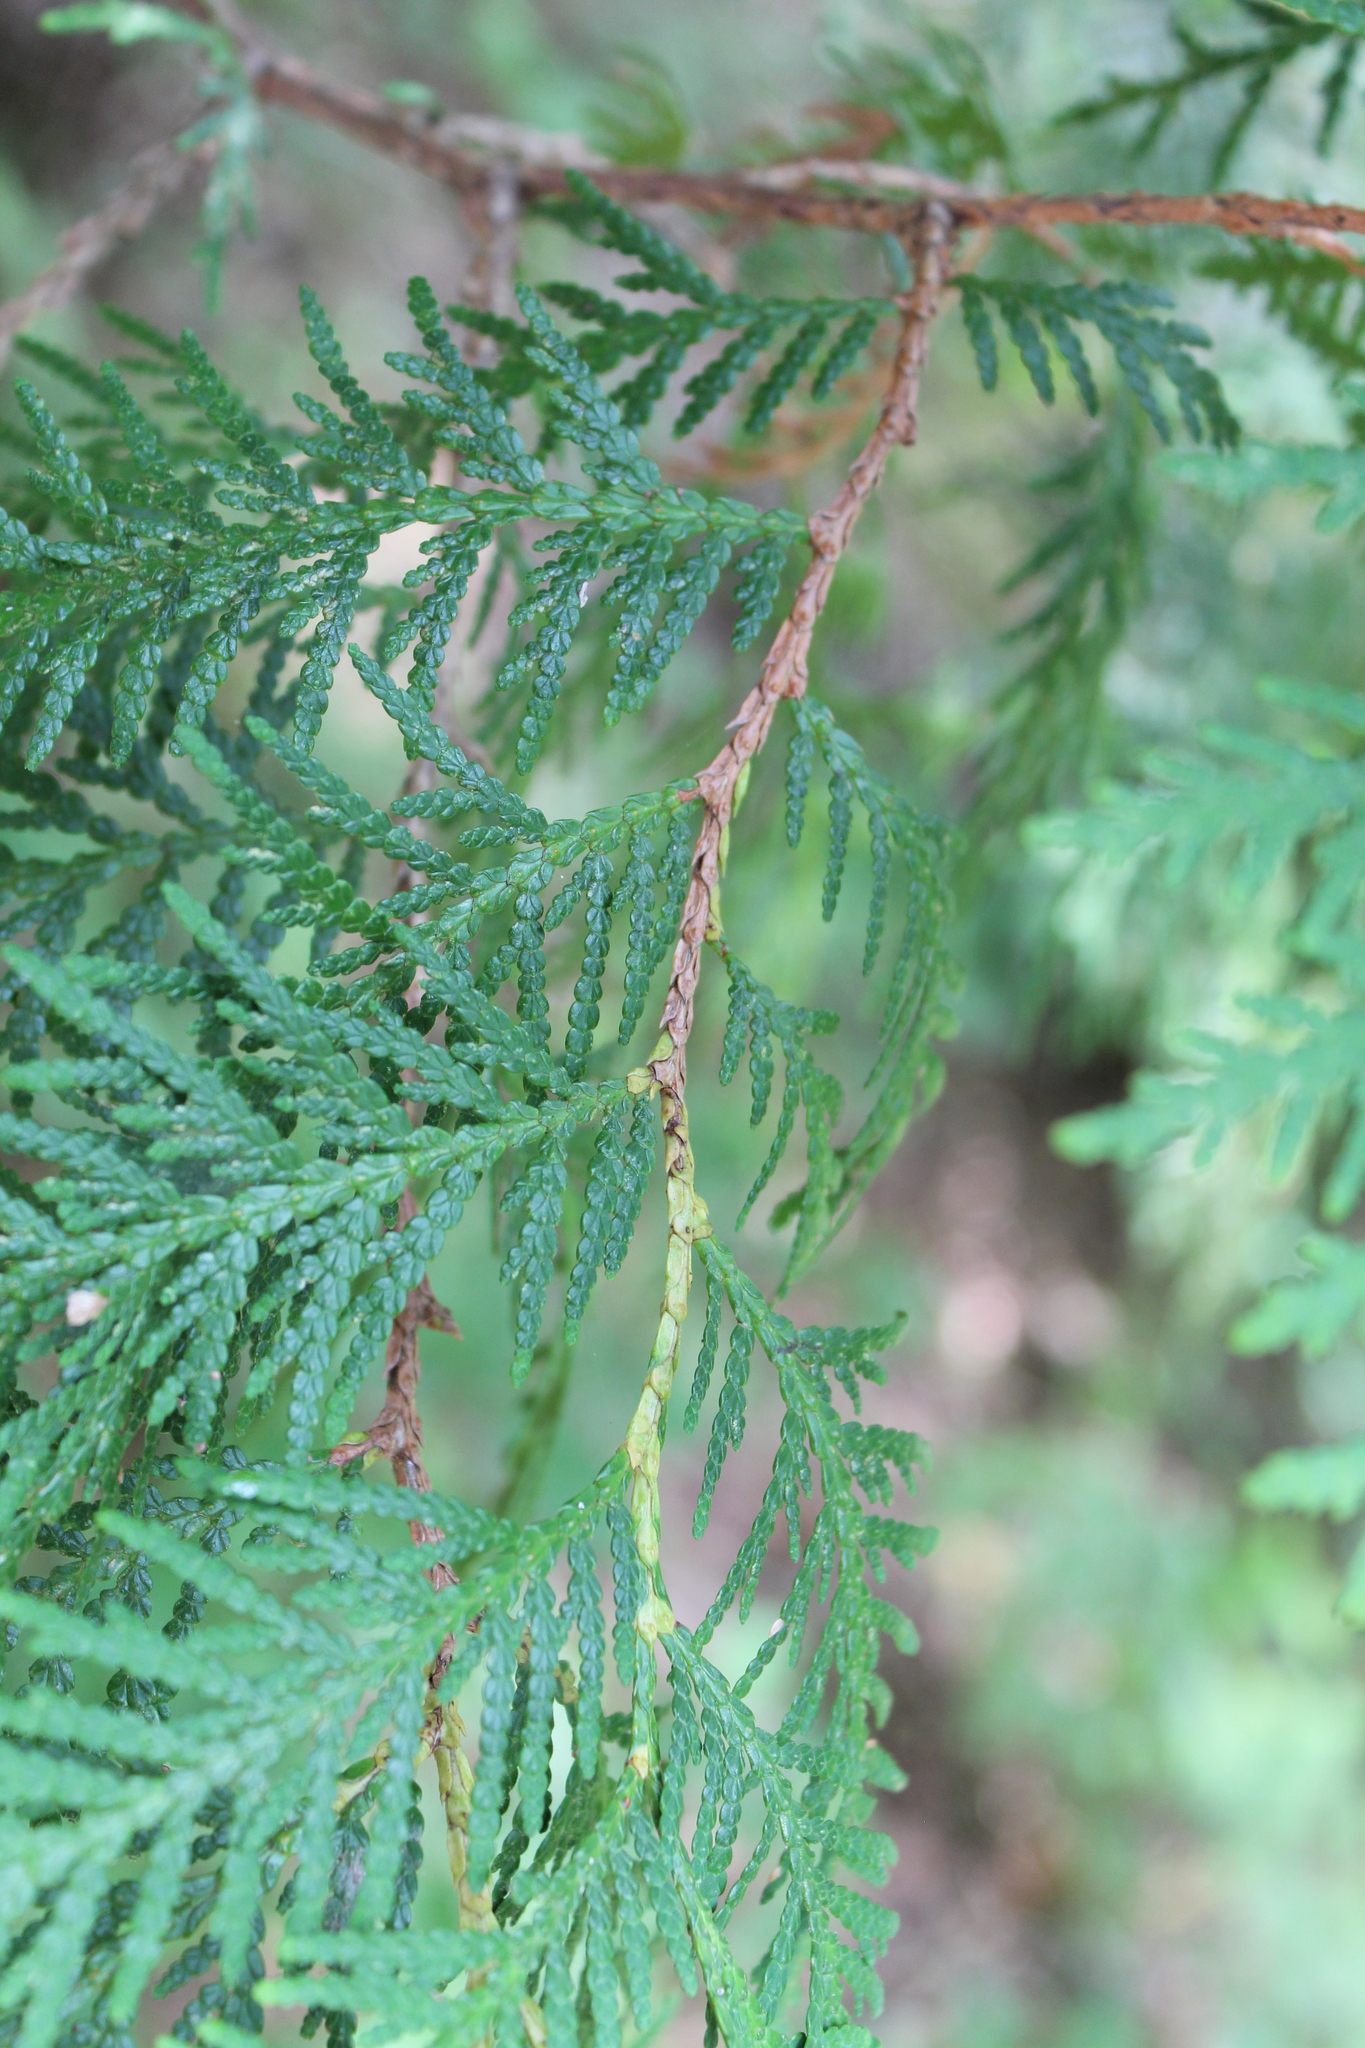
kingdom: Plantae
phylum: Tracheophyta
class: Pinopsida
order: Pinales
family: Cupressaceae
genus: Thuja
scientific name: Thuja occidentalis
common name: Northern white-cedar
